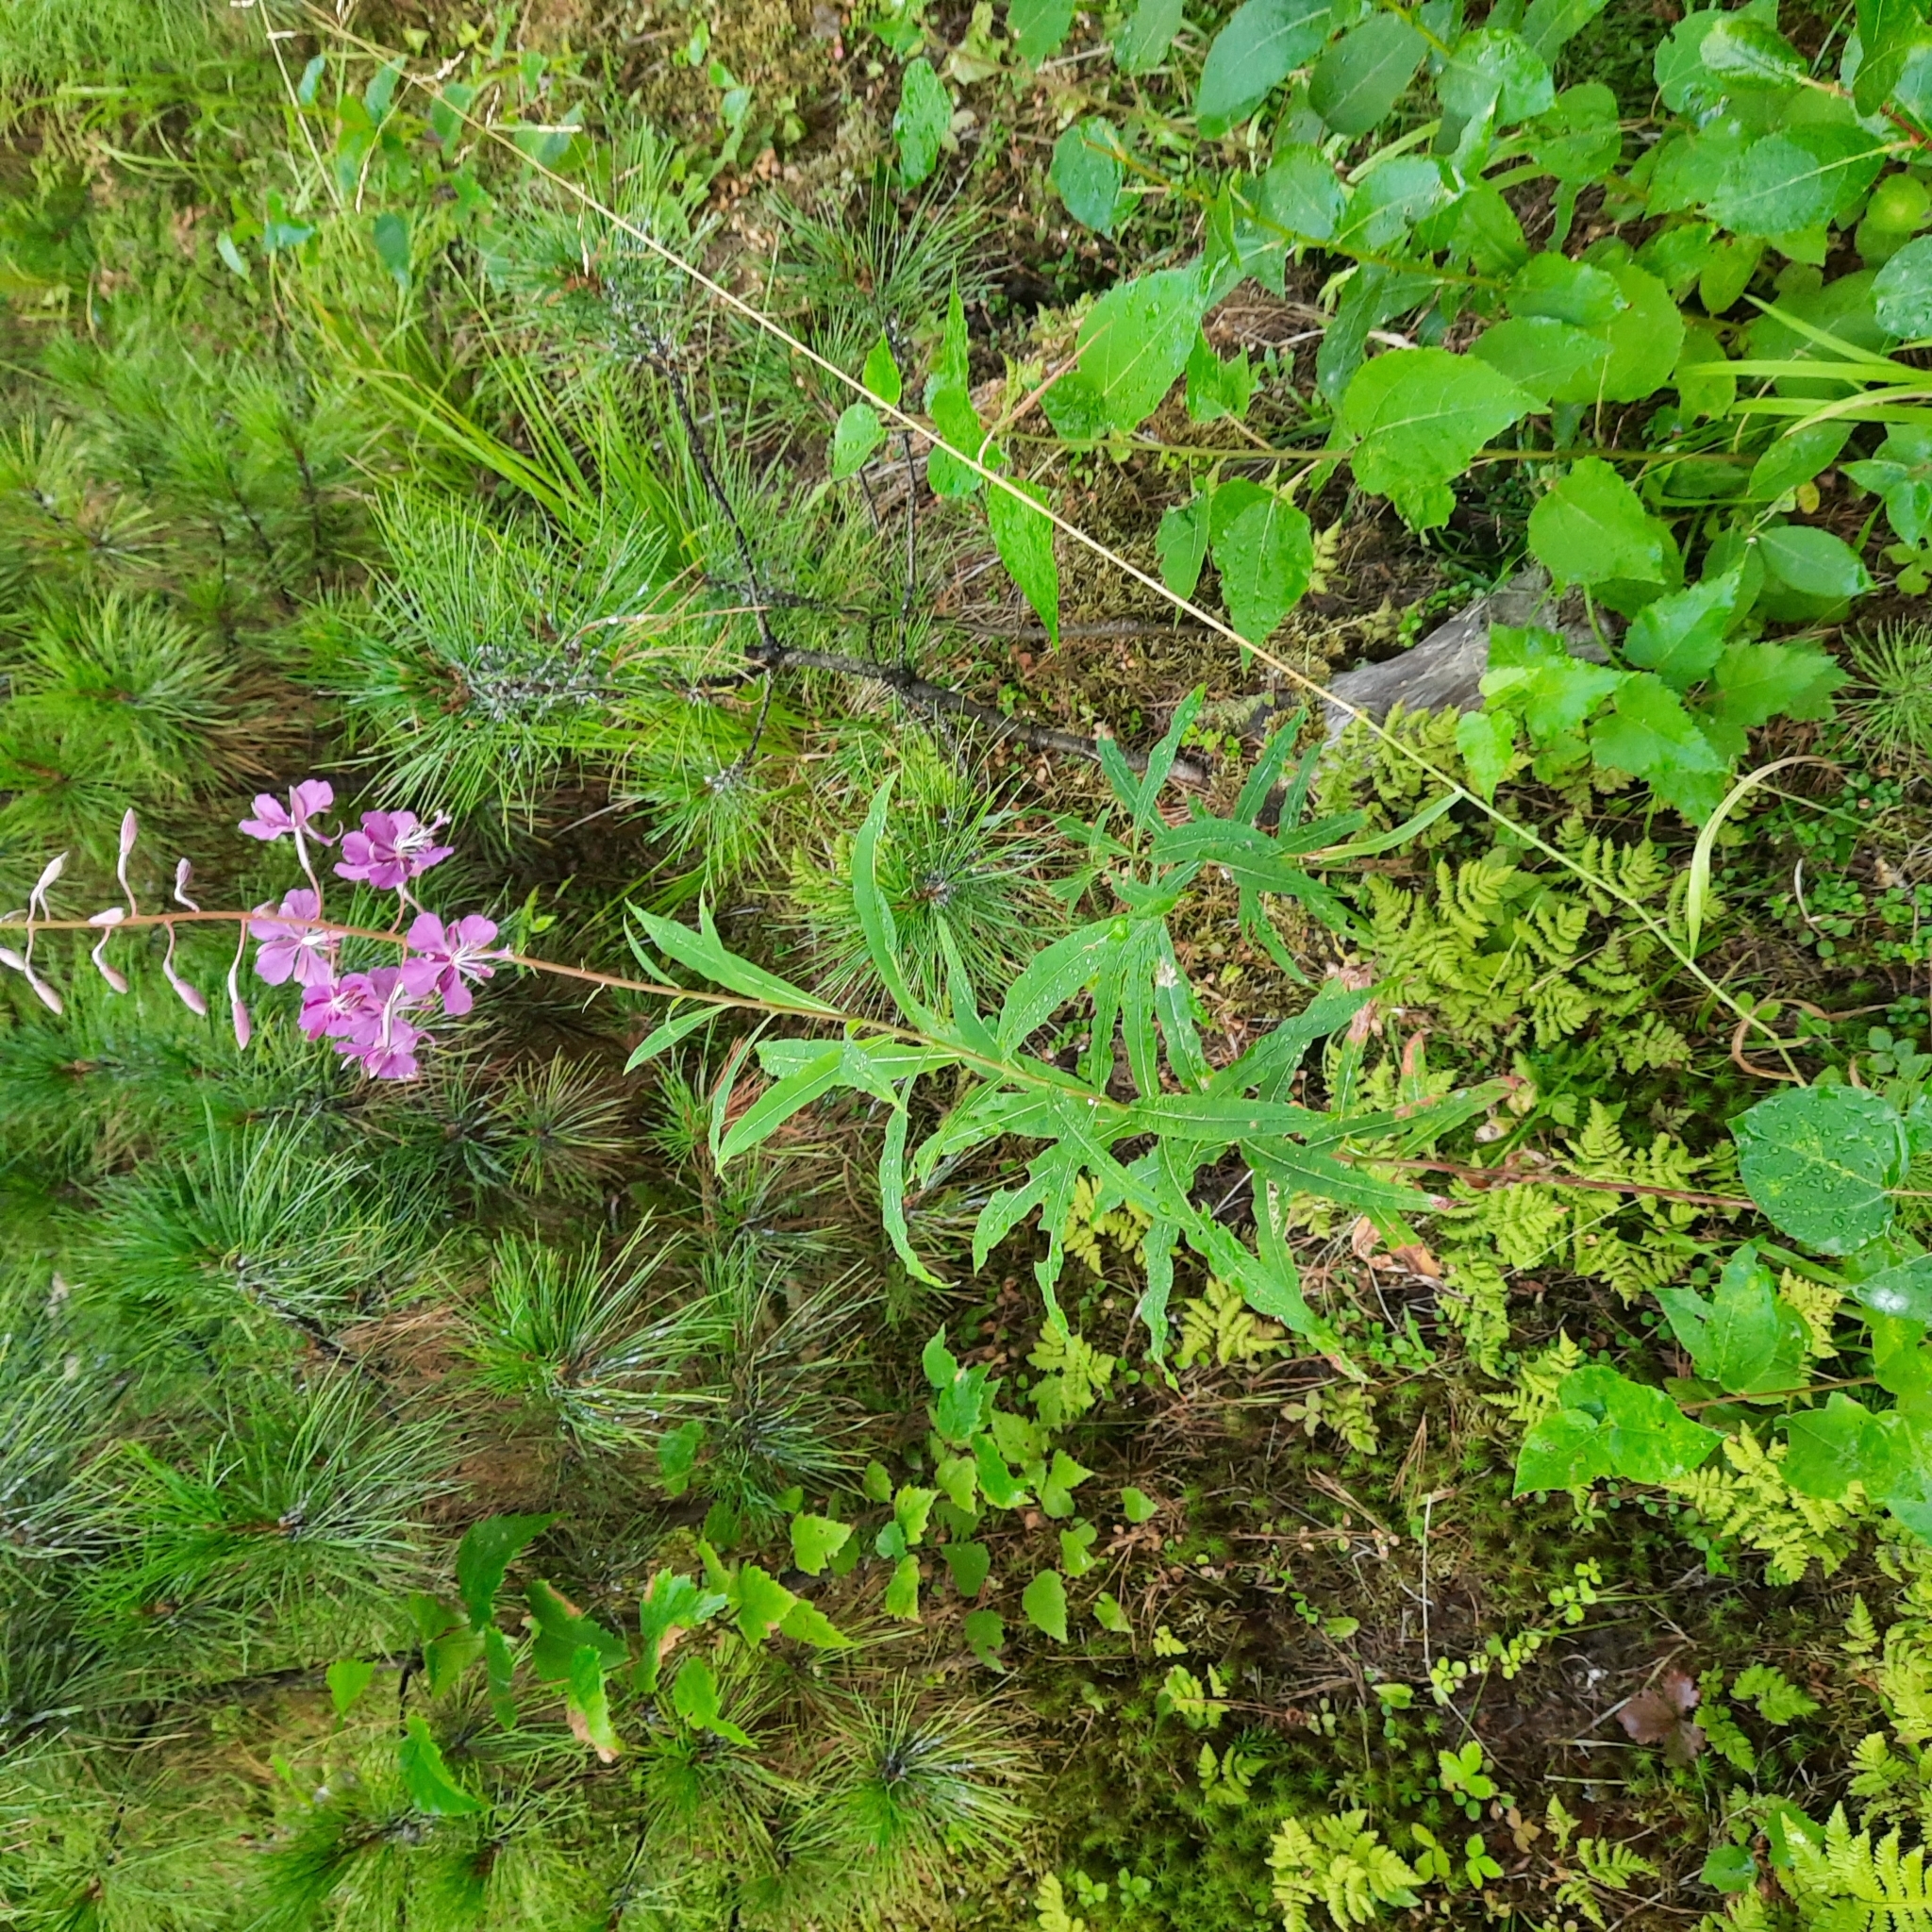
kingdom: Plantae
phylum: Tracheophyta
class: Magnoliopsida
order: Myrtales
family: Onagraceae
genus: Chamaenerion
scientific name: Chamaenerion angustifolium
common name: Fireweed
